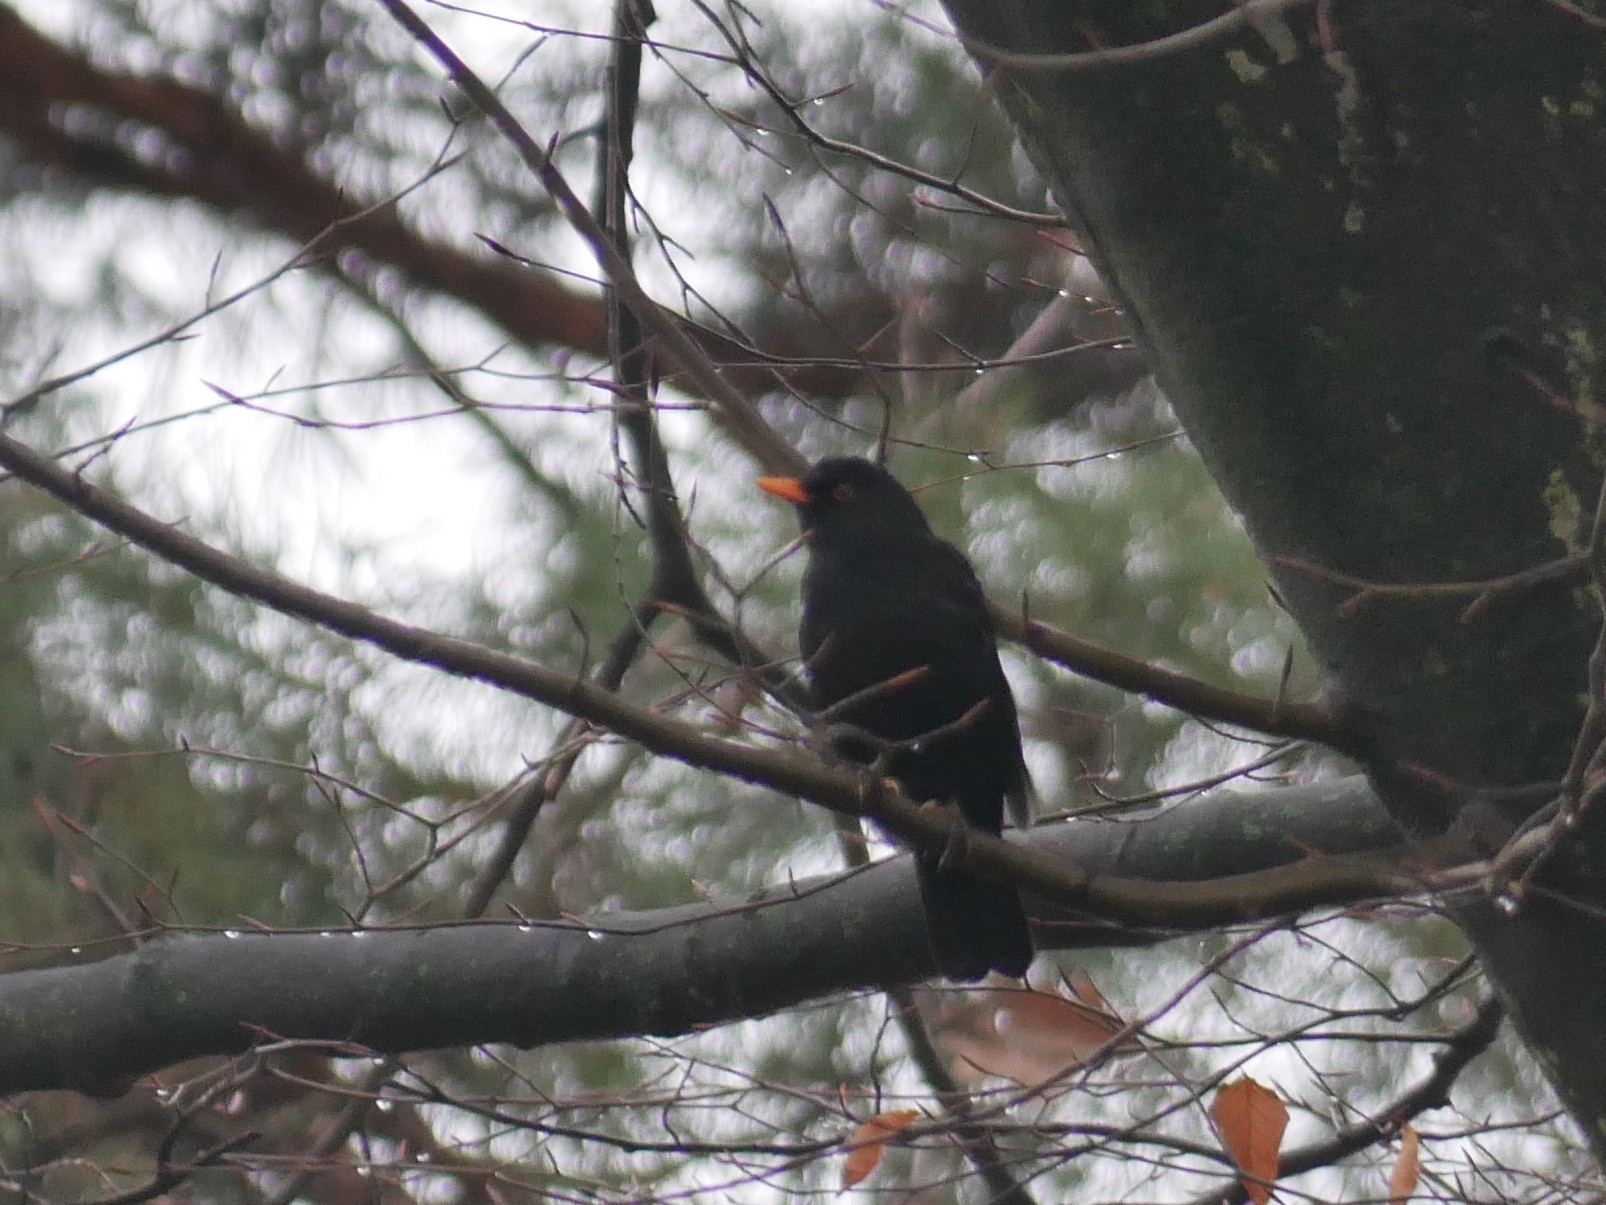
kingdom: Animalia
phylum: Chordata
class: Aves
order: Passeriformes
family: Turdidae
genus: Turdus
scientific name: Turdus merula
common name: Common blackbird
